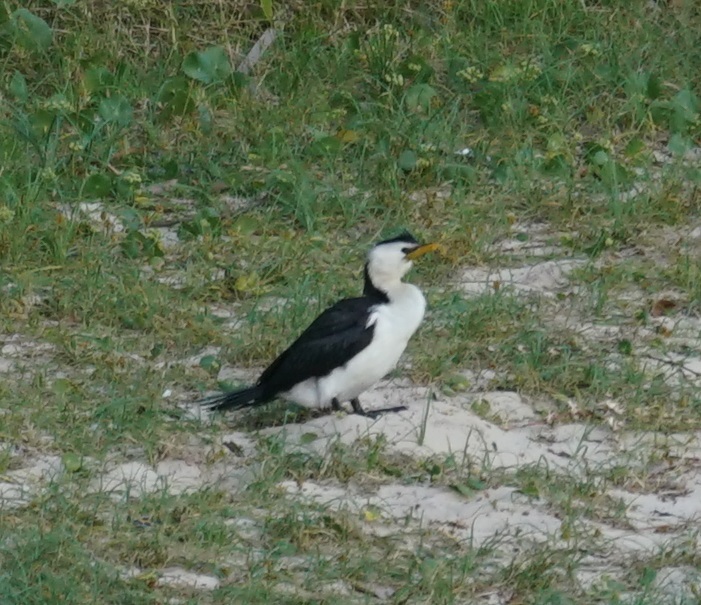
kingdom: Animalia
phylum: Chordata
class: Aves
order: Suliformes
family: Phalacrocoracidae
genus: Microcarbo
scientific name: Microcarbo melanoleucos
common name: Little pied cormorant
